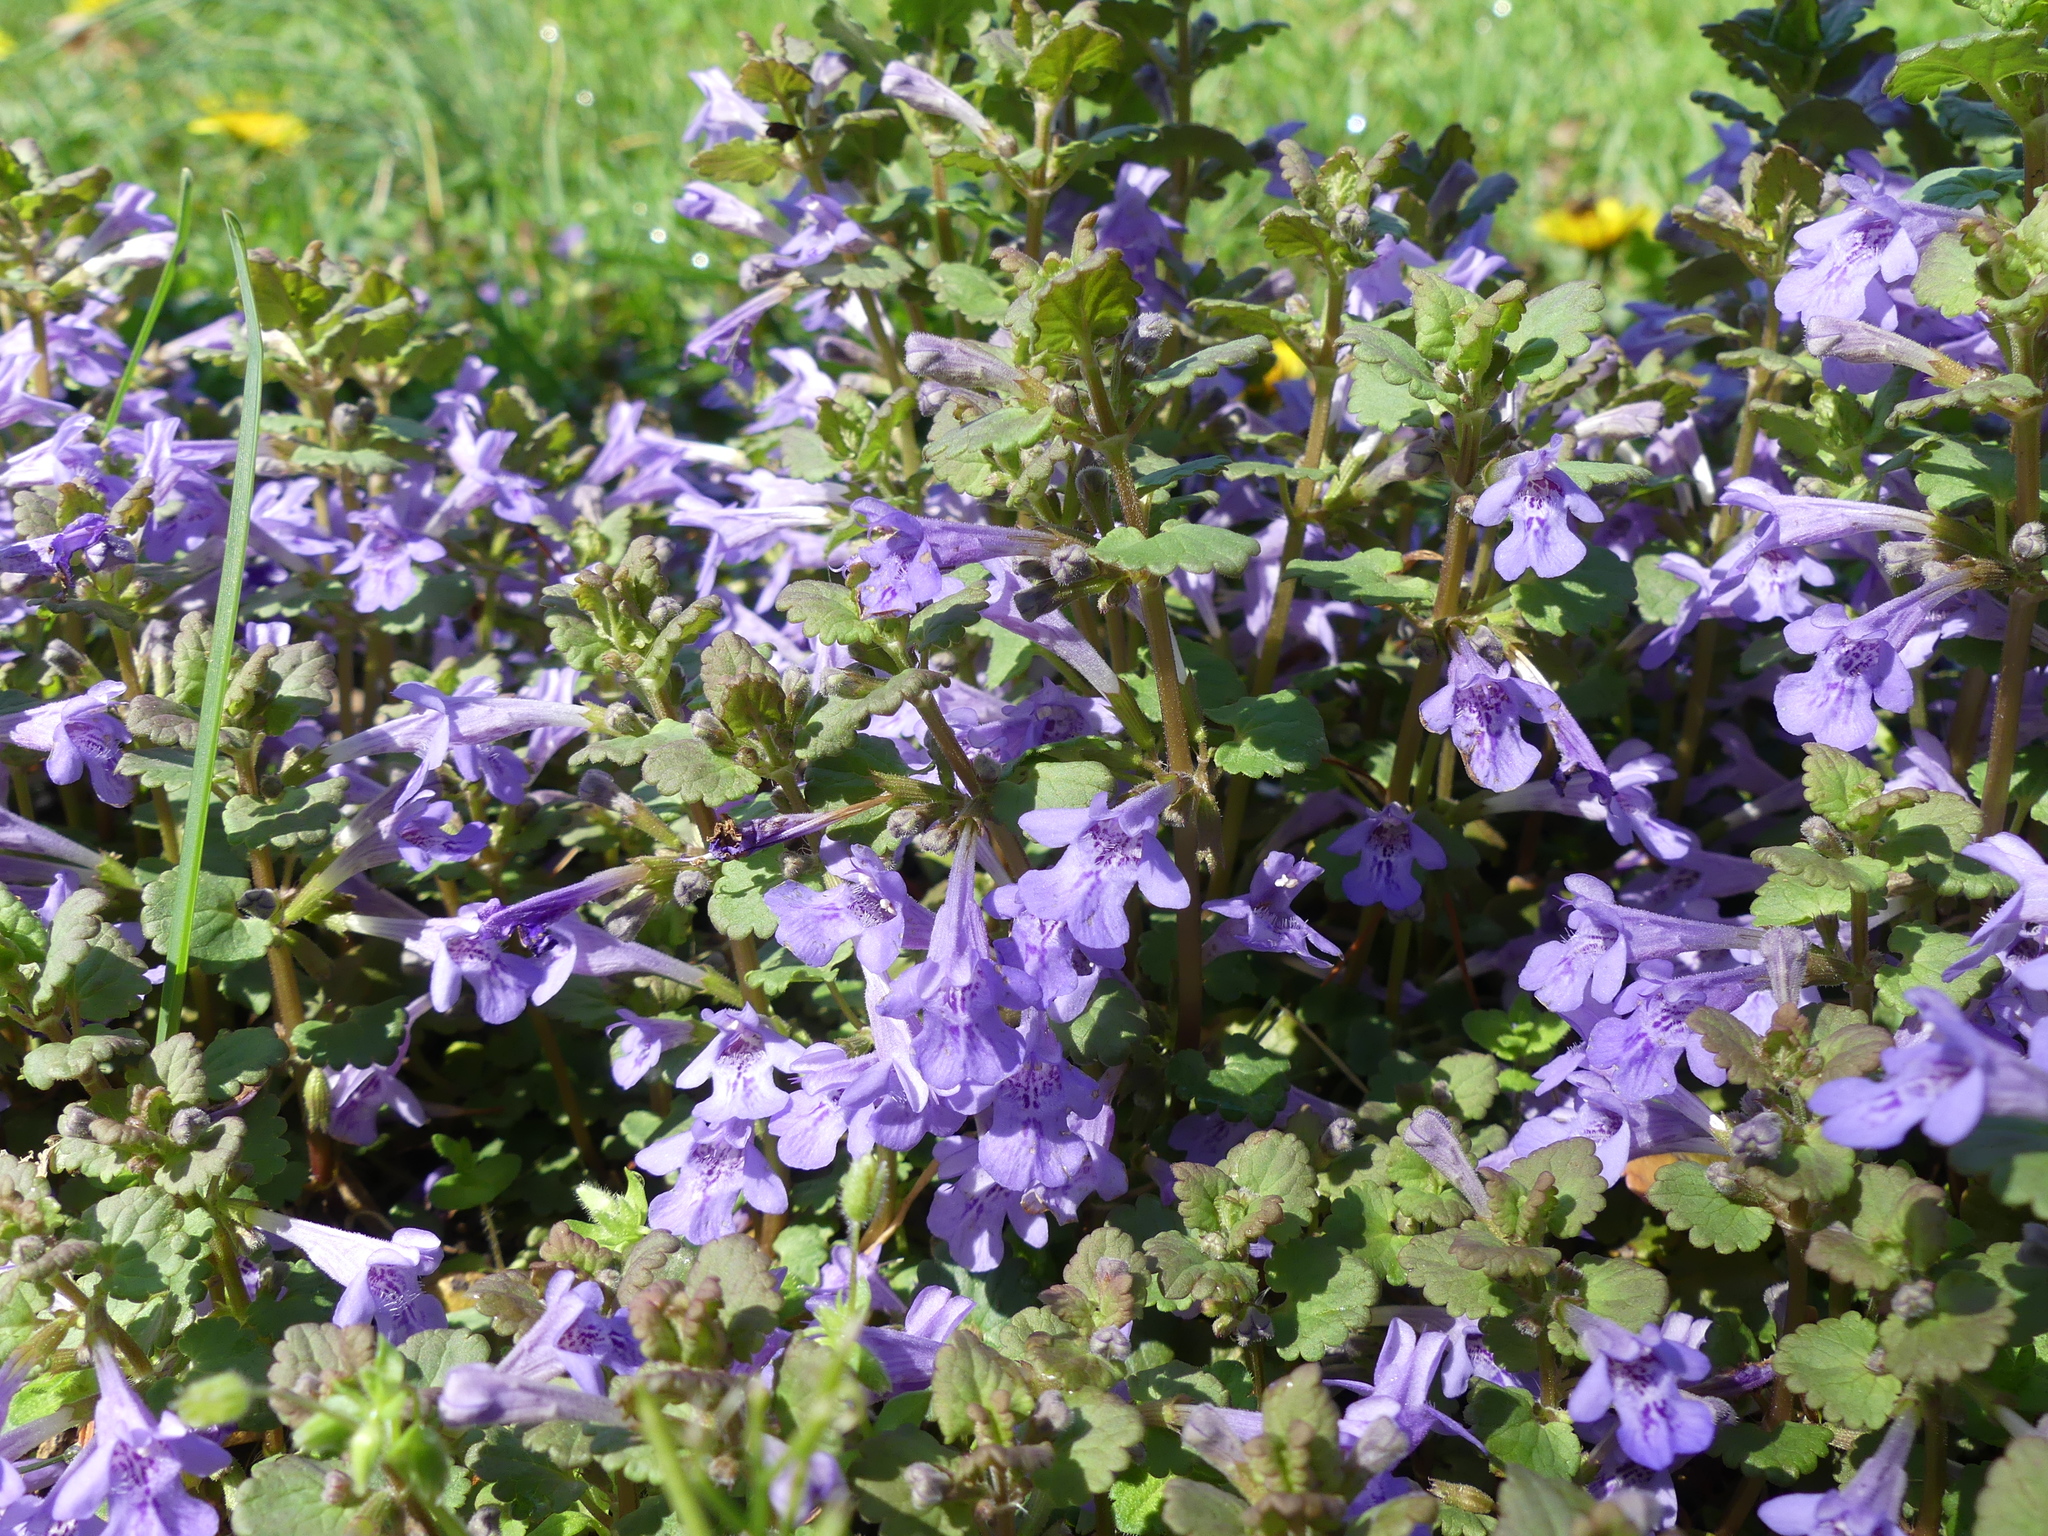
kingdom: Plantae
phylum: Tracheophyta
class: Magnoliopsida
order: Lamiales
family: Lamiaceae
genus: Glechoma
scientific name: Glechoma hederacea
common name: Ground ivy
